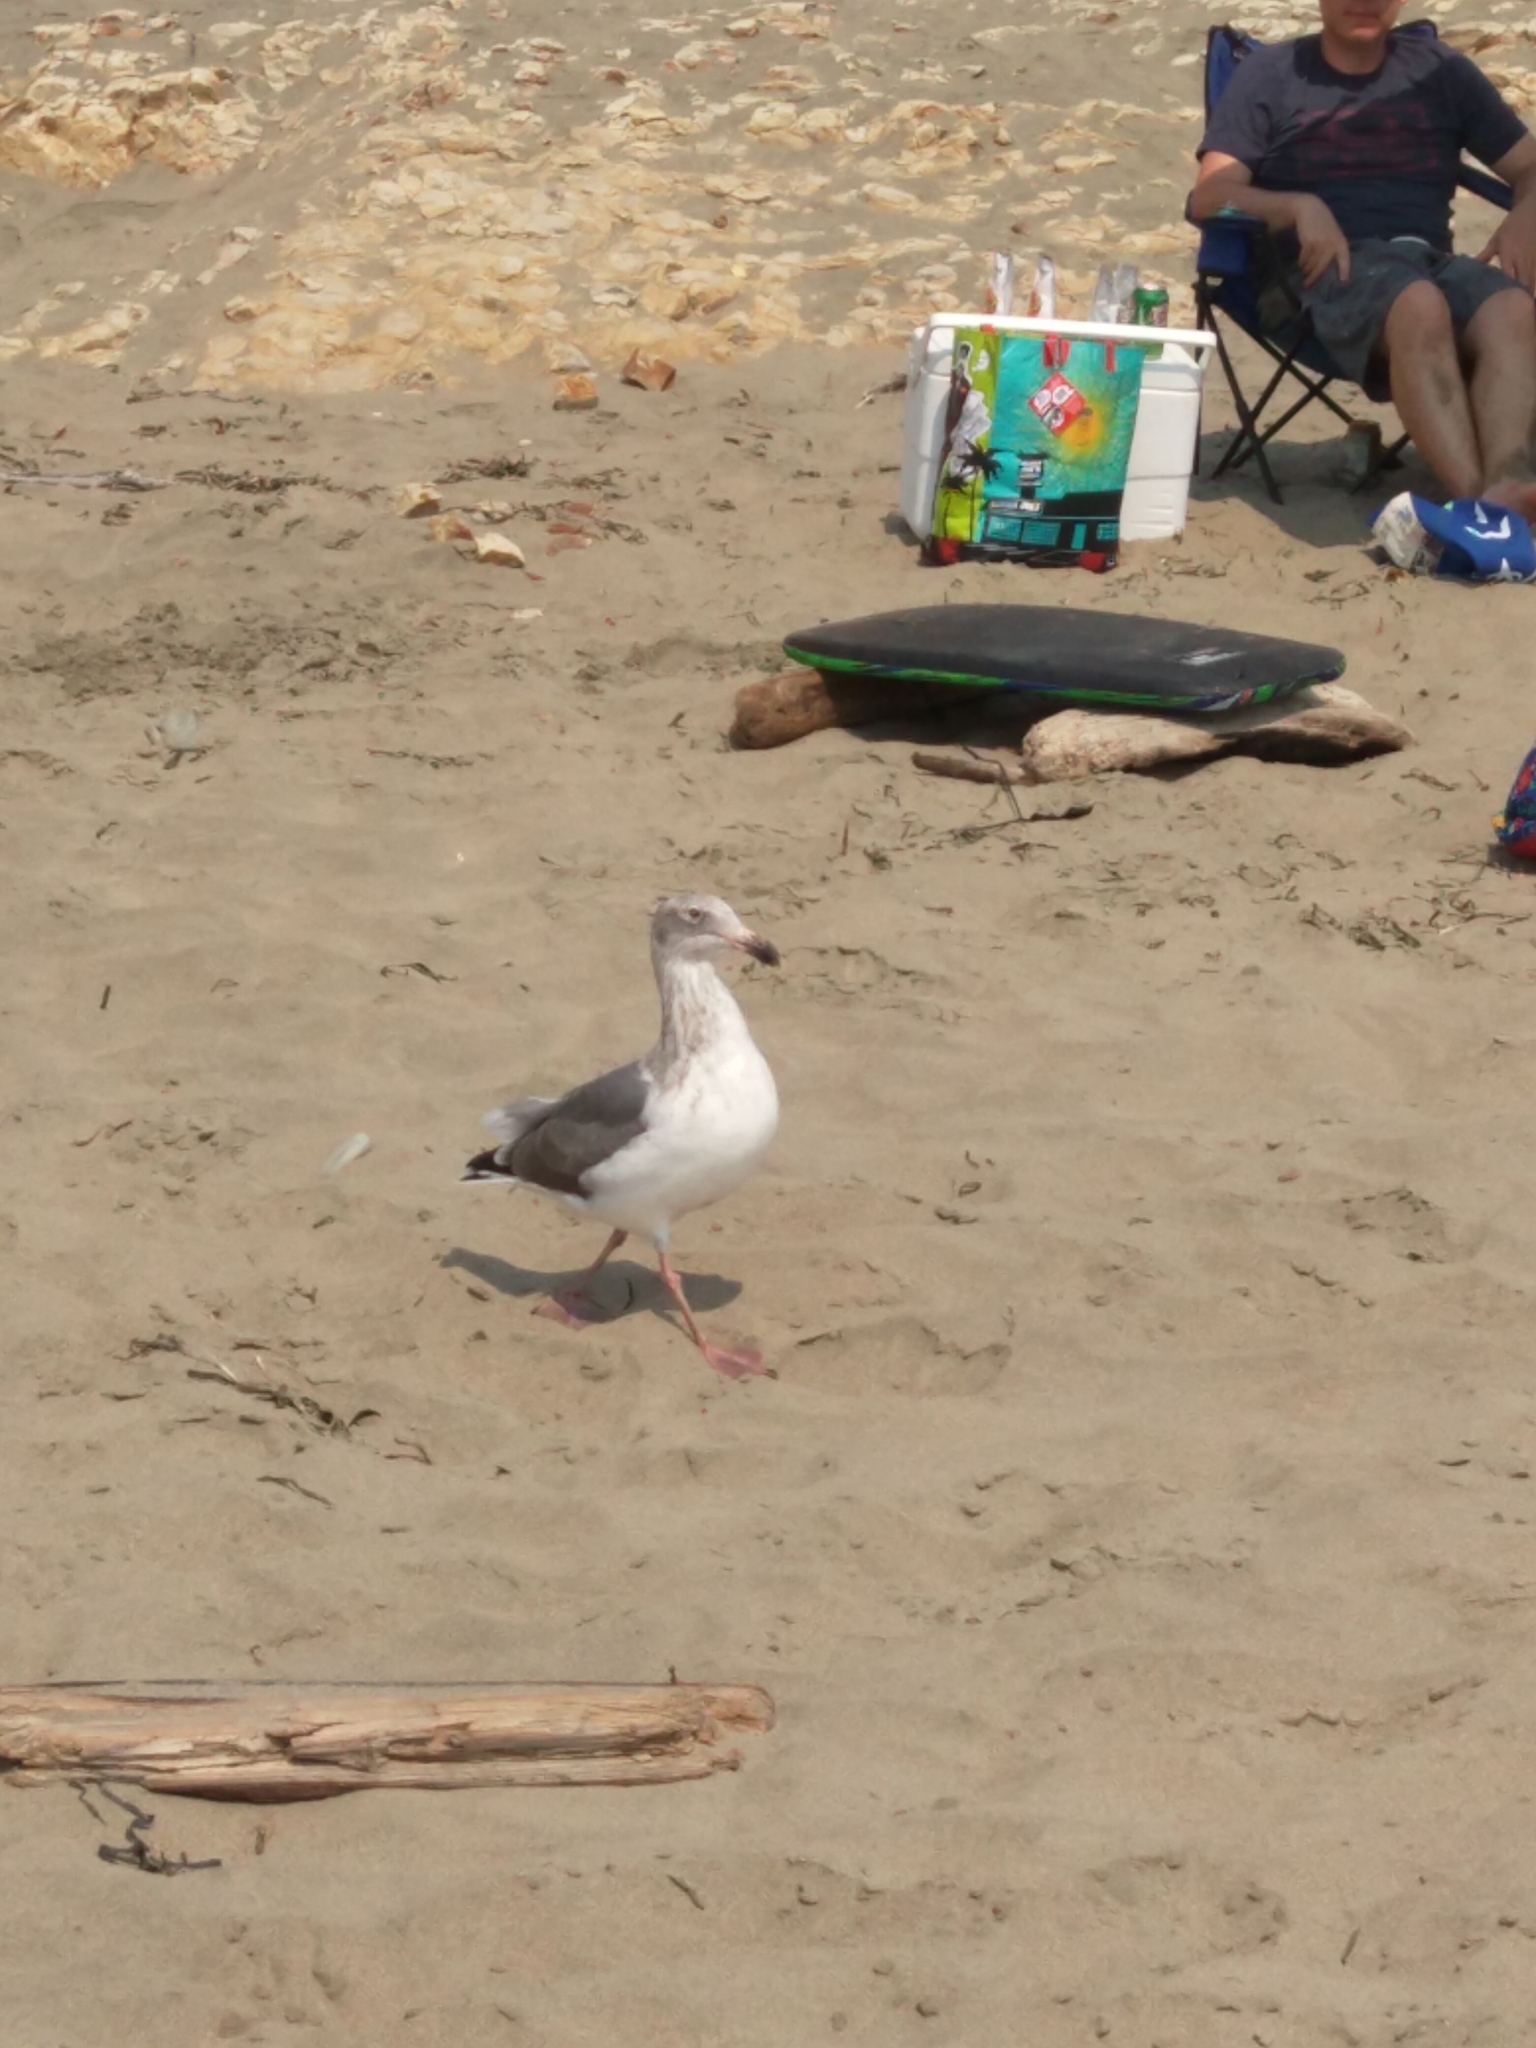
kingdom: Animalia
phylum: Chordata
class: Aves
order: Charadriiformes
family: Laridae
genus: Larus
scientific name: Larus occidentalis
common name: Western gull
